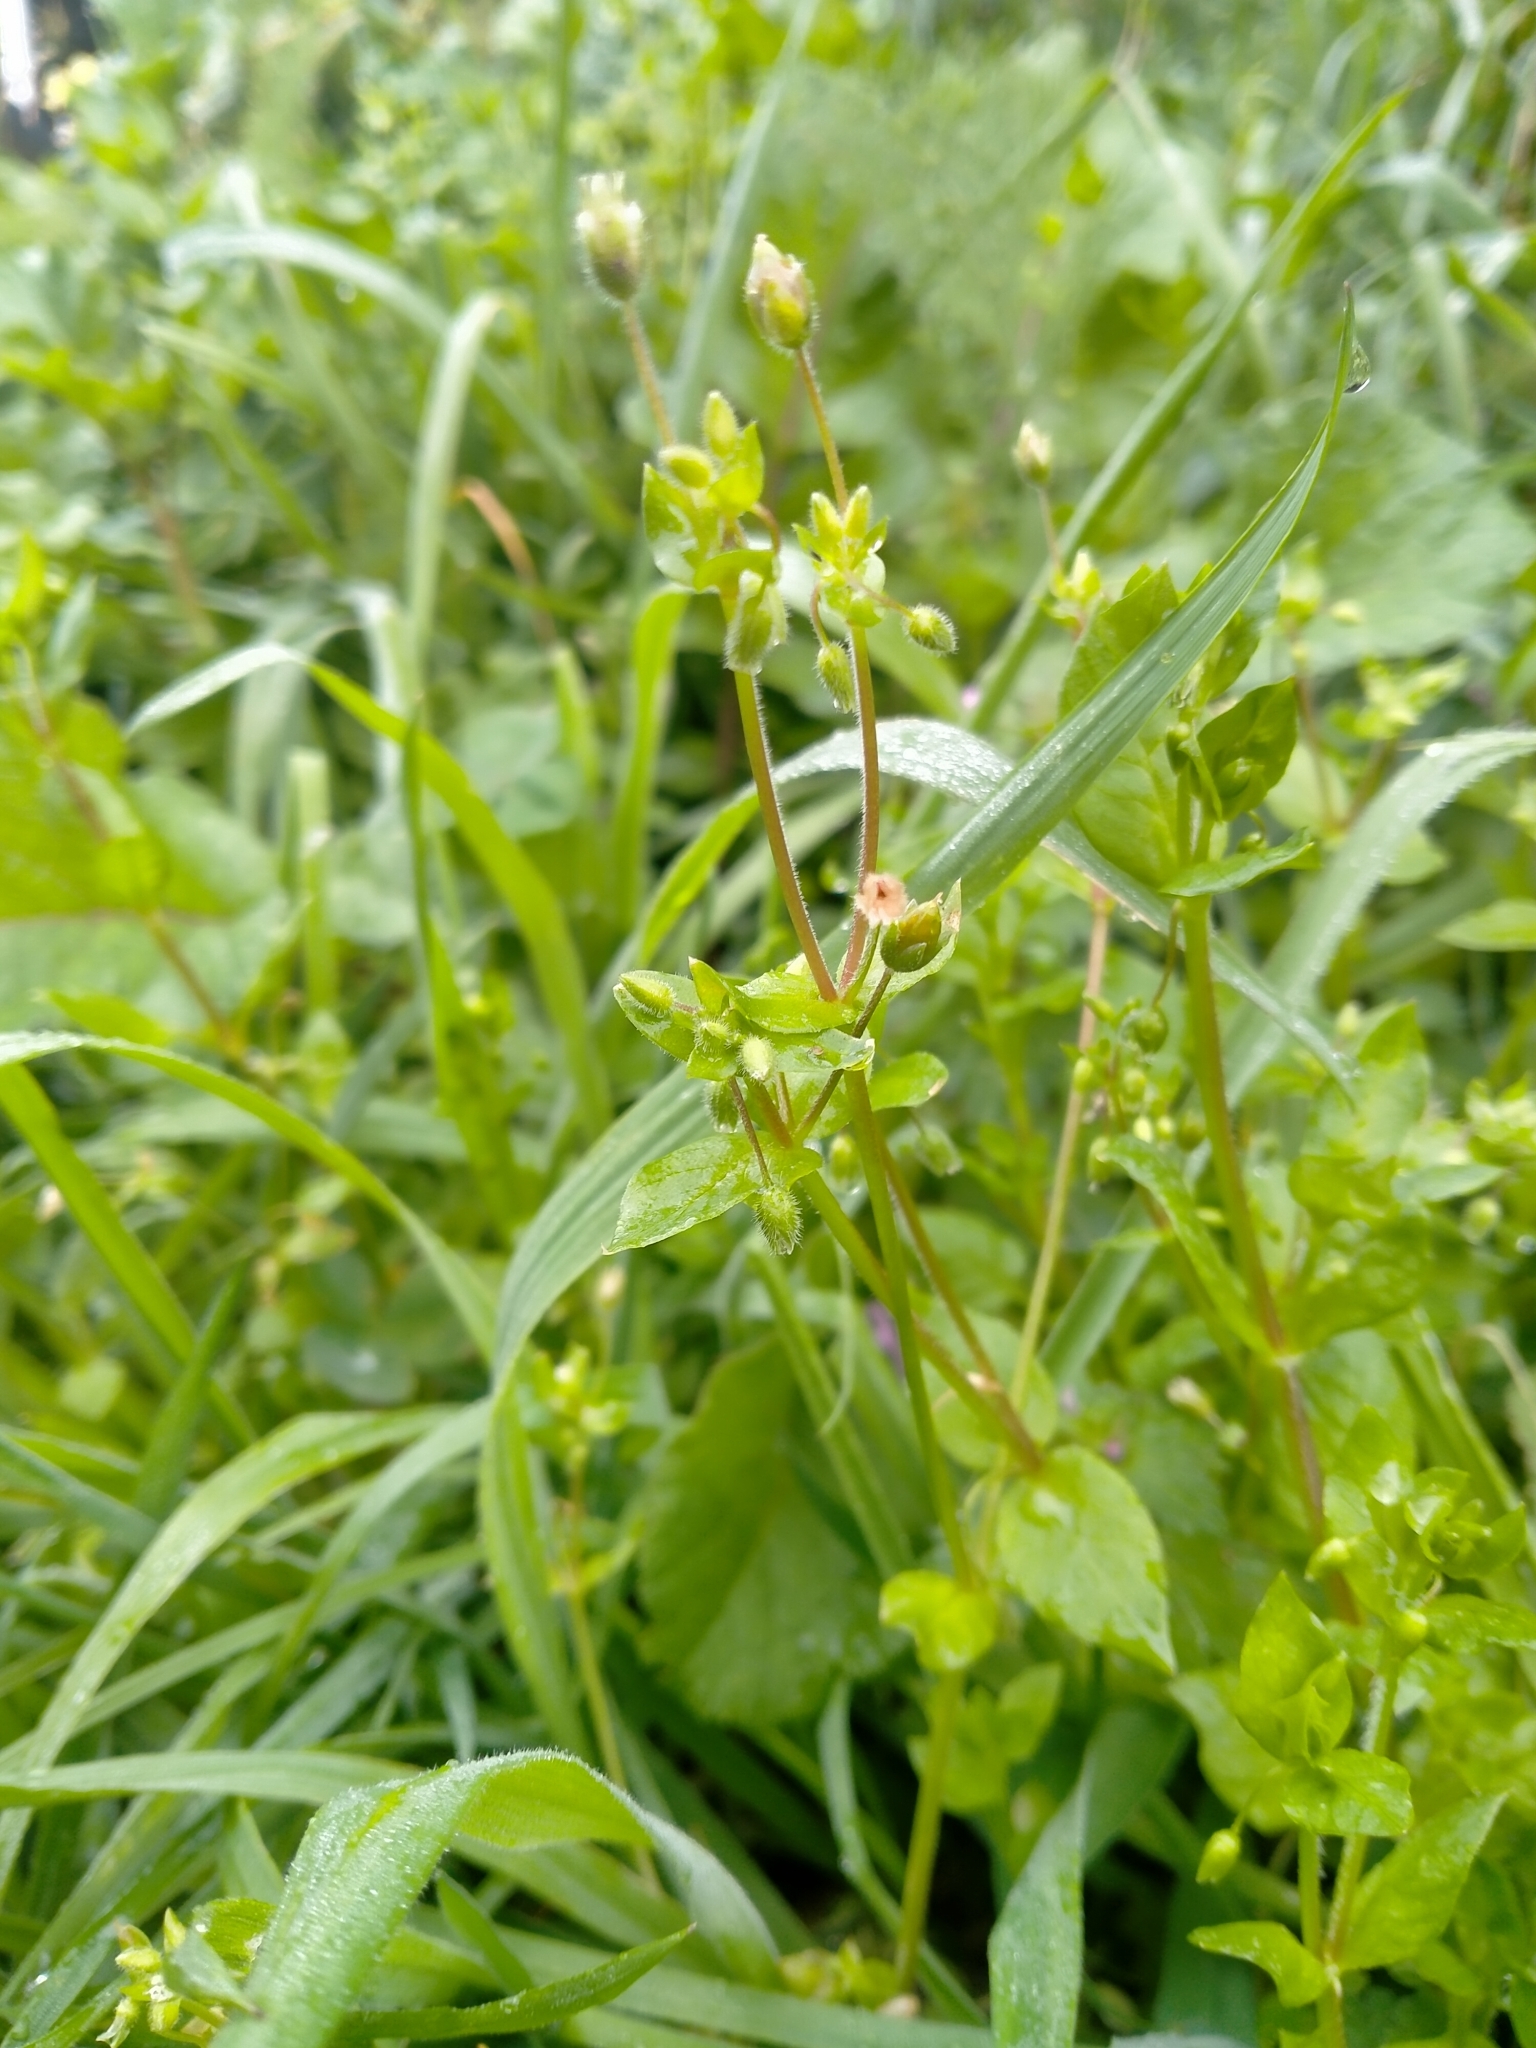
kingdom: Plantae
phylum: Tracheophyta
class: Magnoliopsida
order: Caryophyllales
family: Caryophyllaceae
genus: Stellaria
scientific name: Stellaria media
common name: Common chickweed
